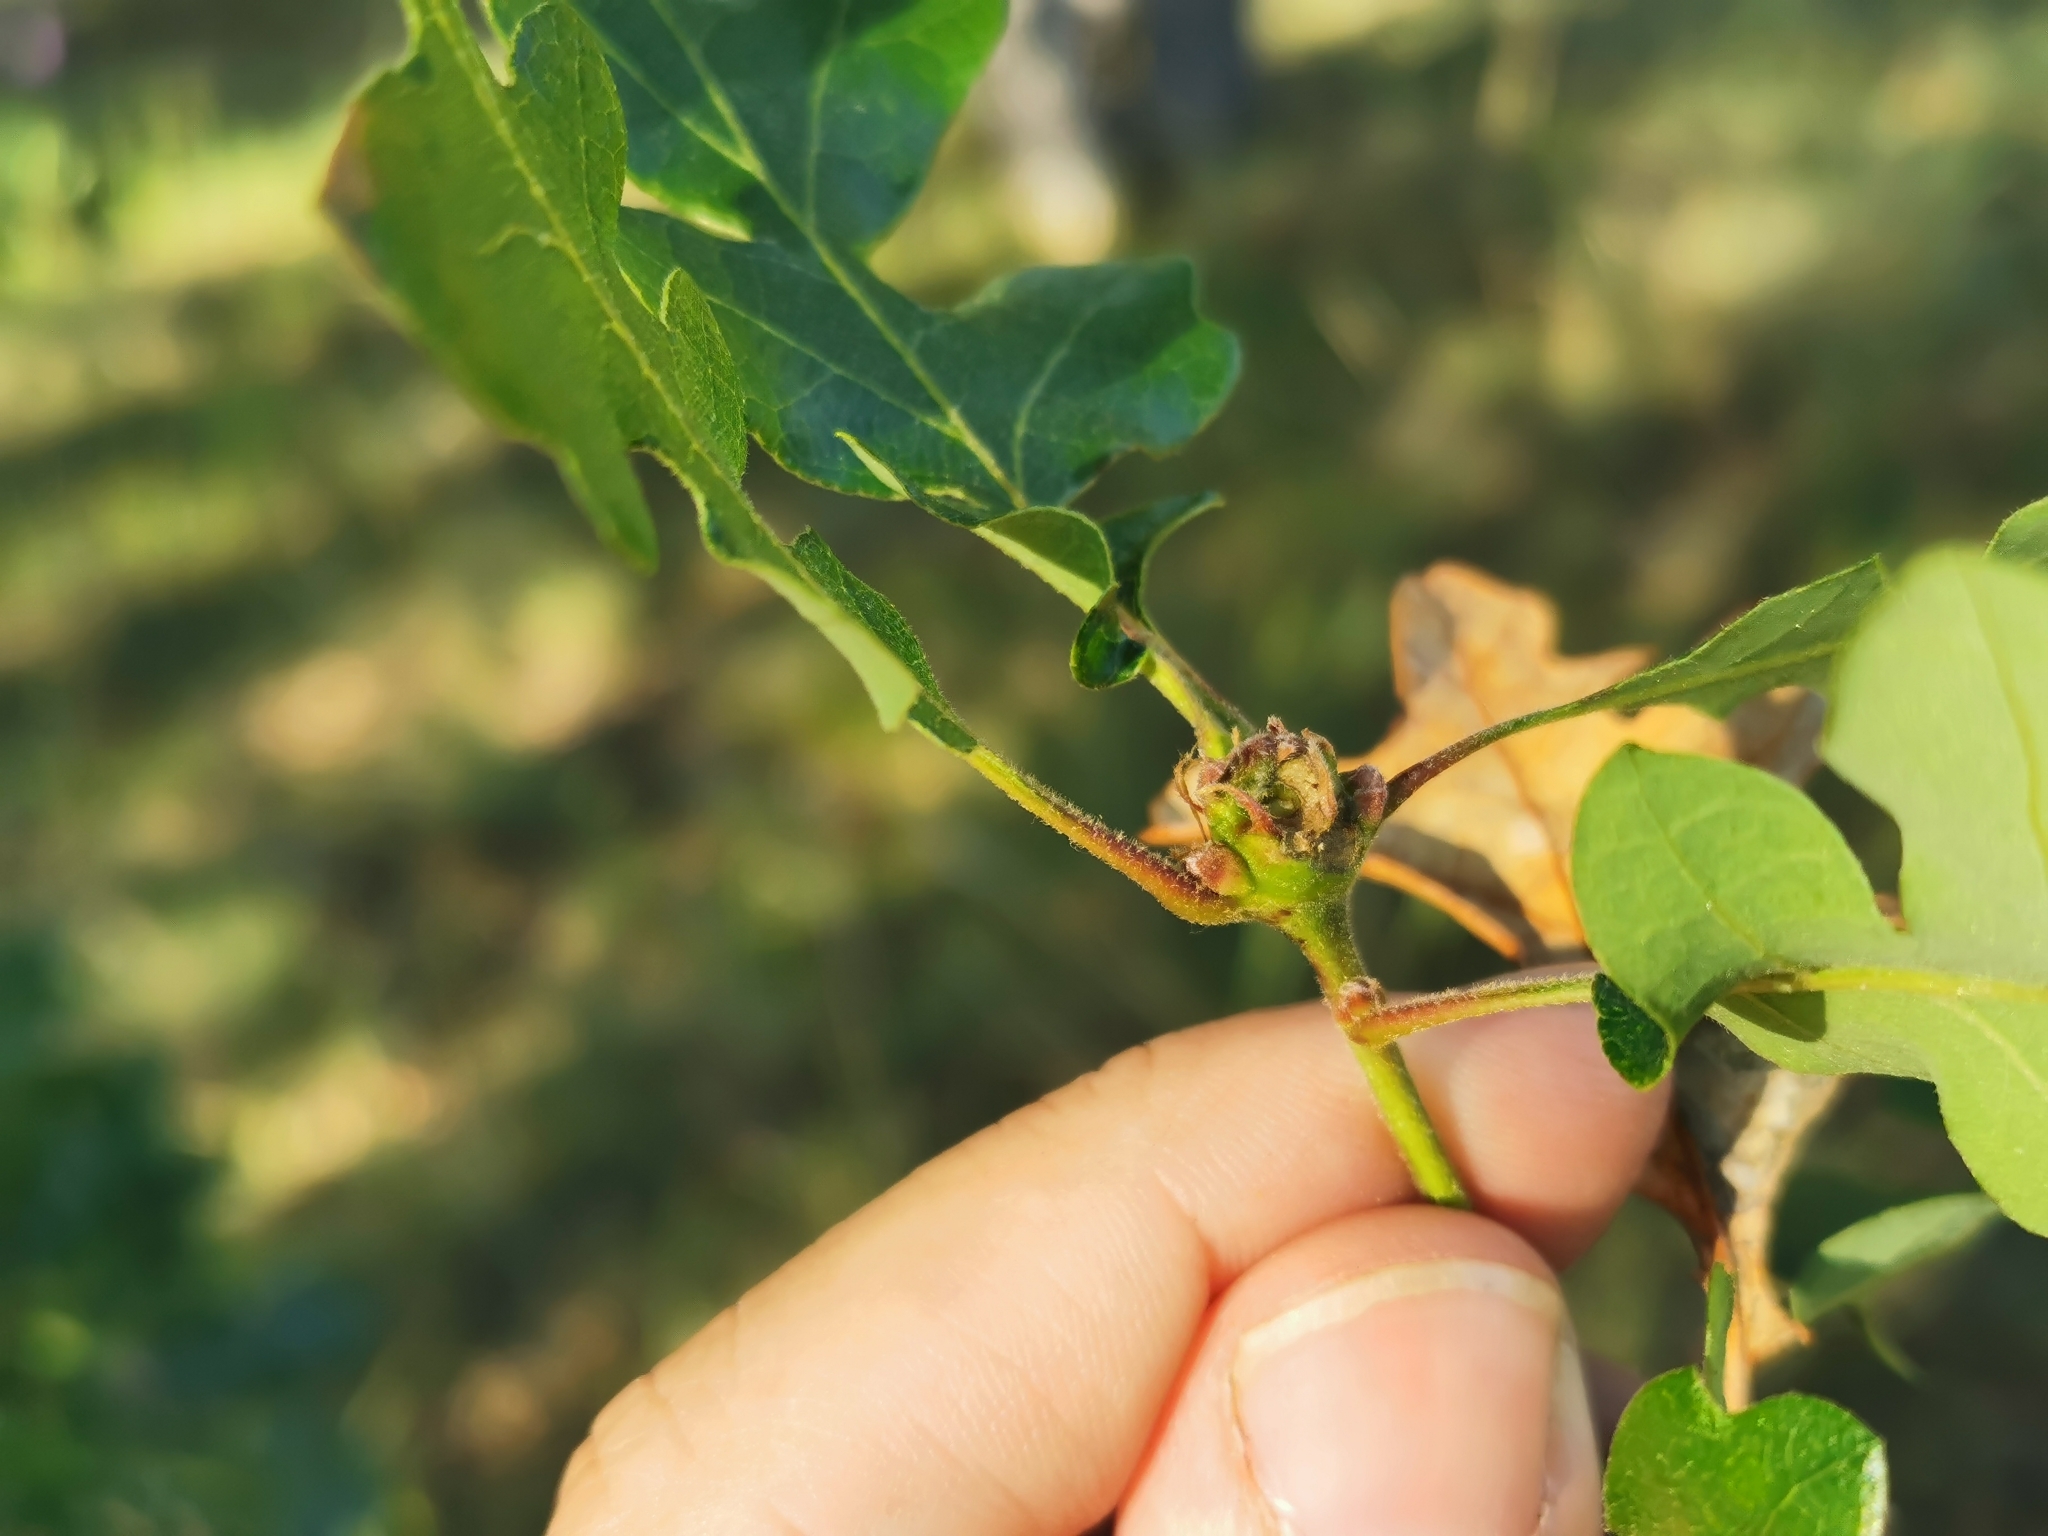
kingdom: Animalia
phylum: Arthropoda
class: Insecta
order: Hymenoptera
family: Cynipidae
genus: Andricus
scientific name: Andricus
